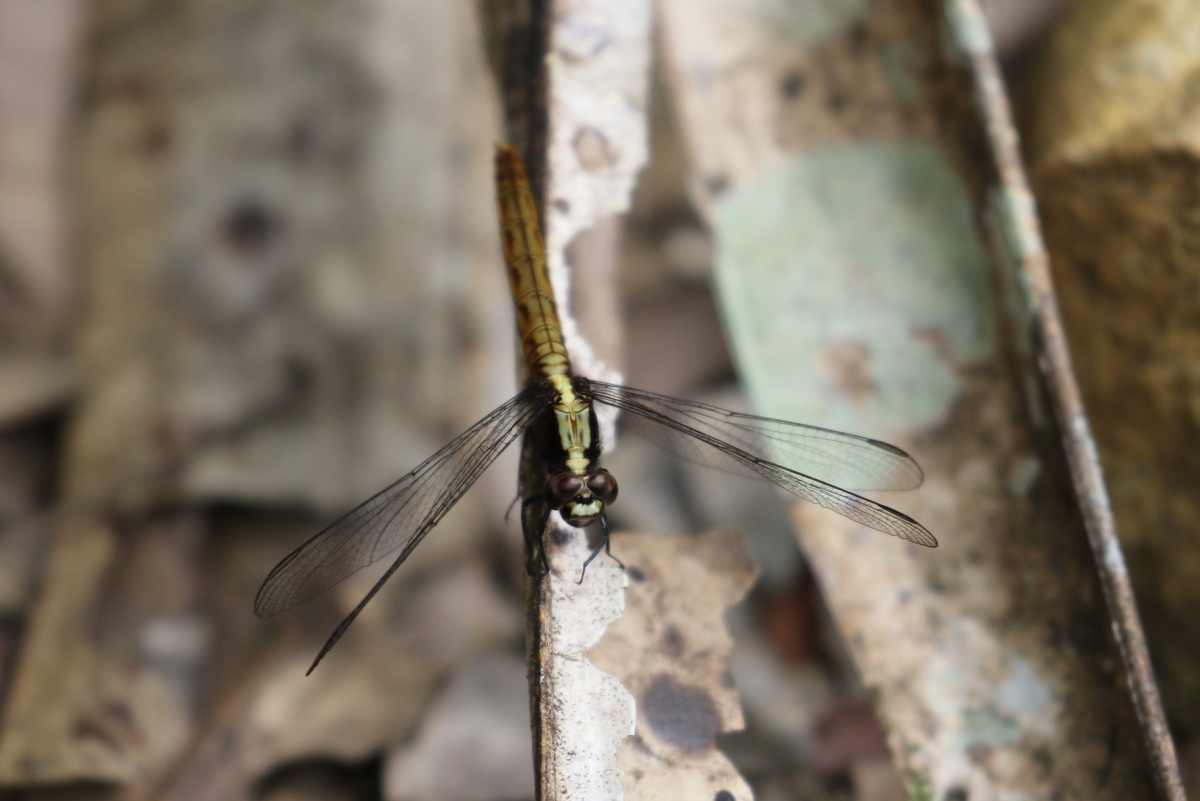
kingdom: Animalia
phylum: Arthropoda
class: Insecta
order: Odonata
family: Libellulidae
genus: Erythemis
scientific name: Erythemis peruviana
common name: Flame-tailed pondhawk
